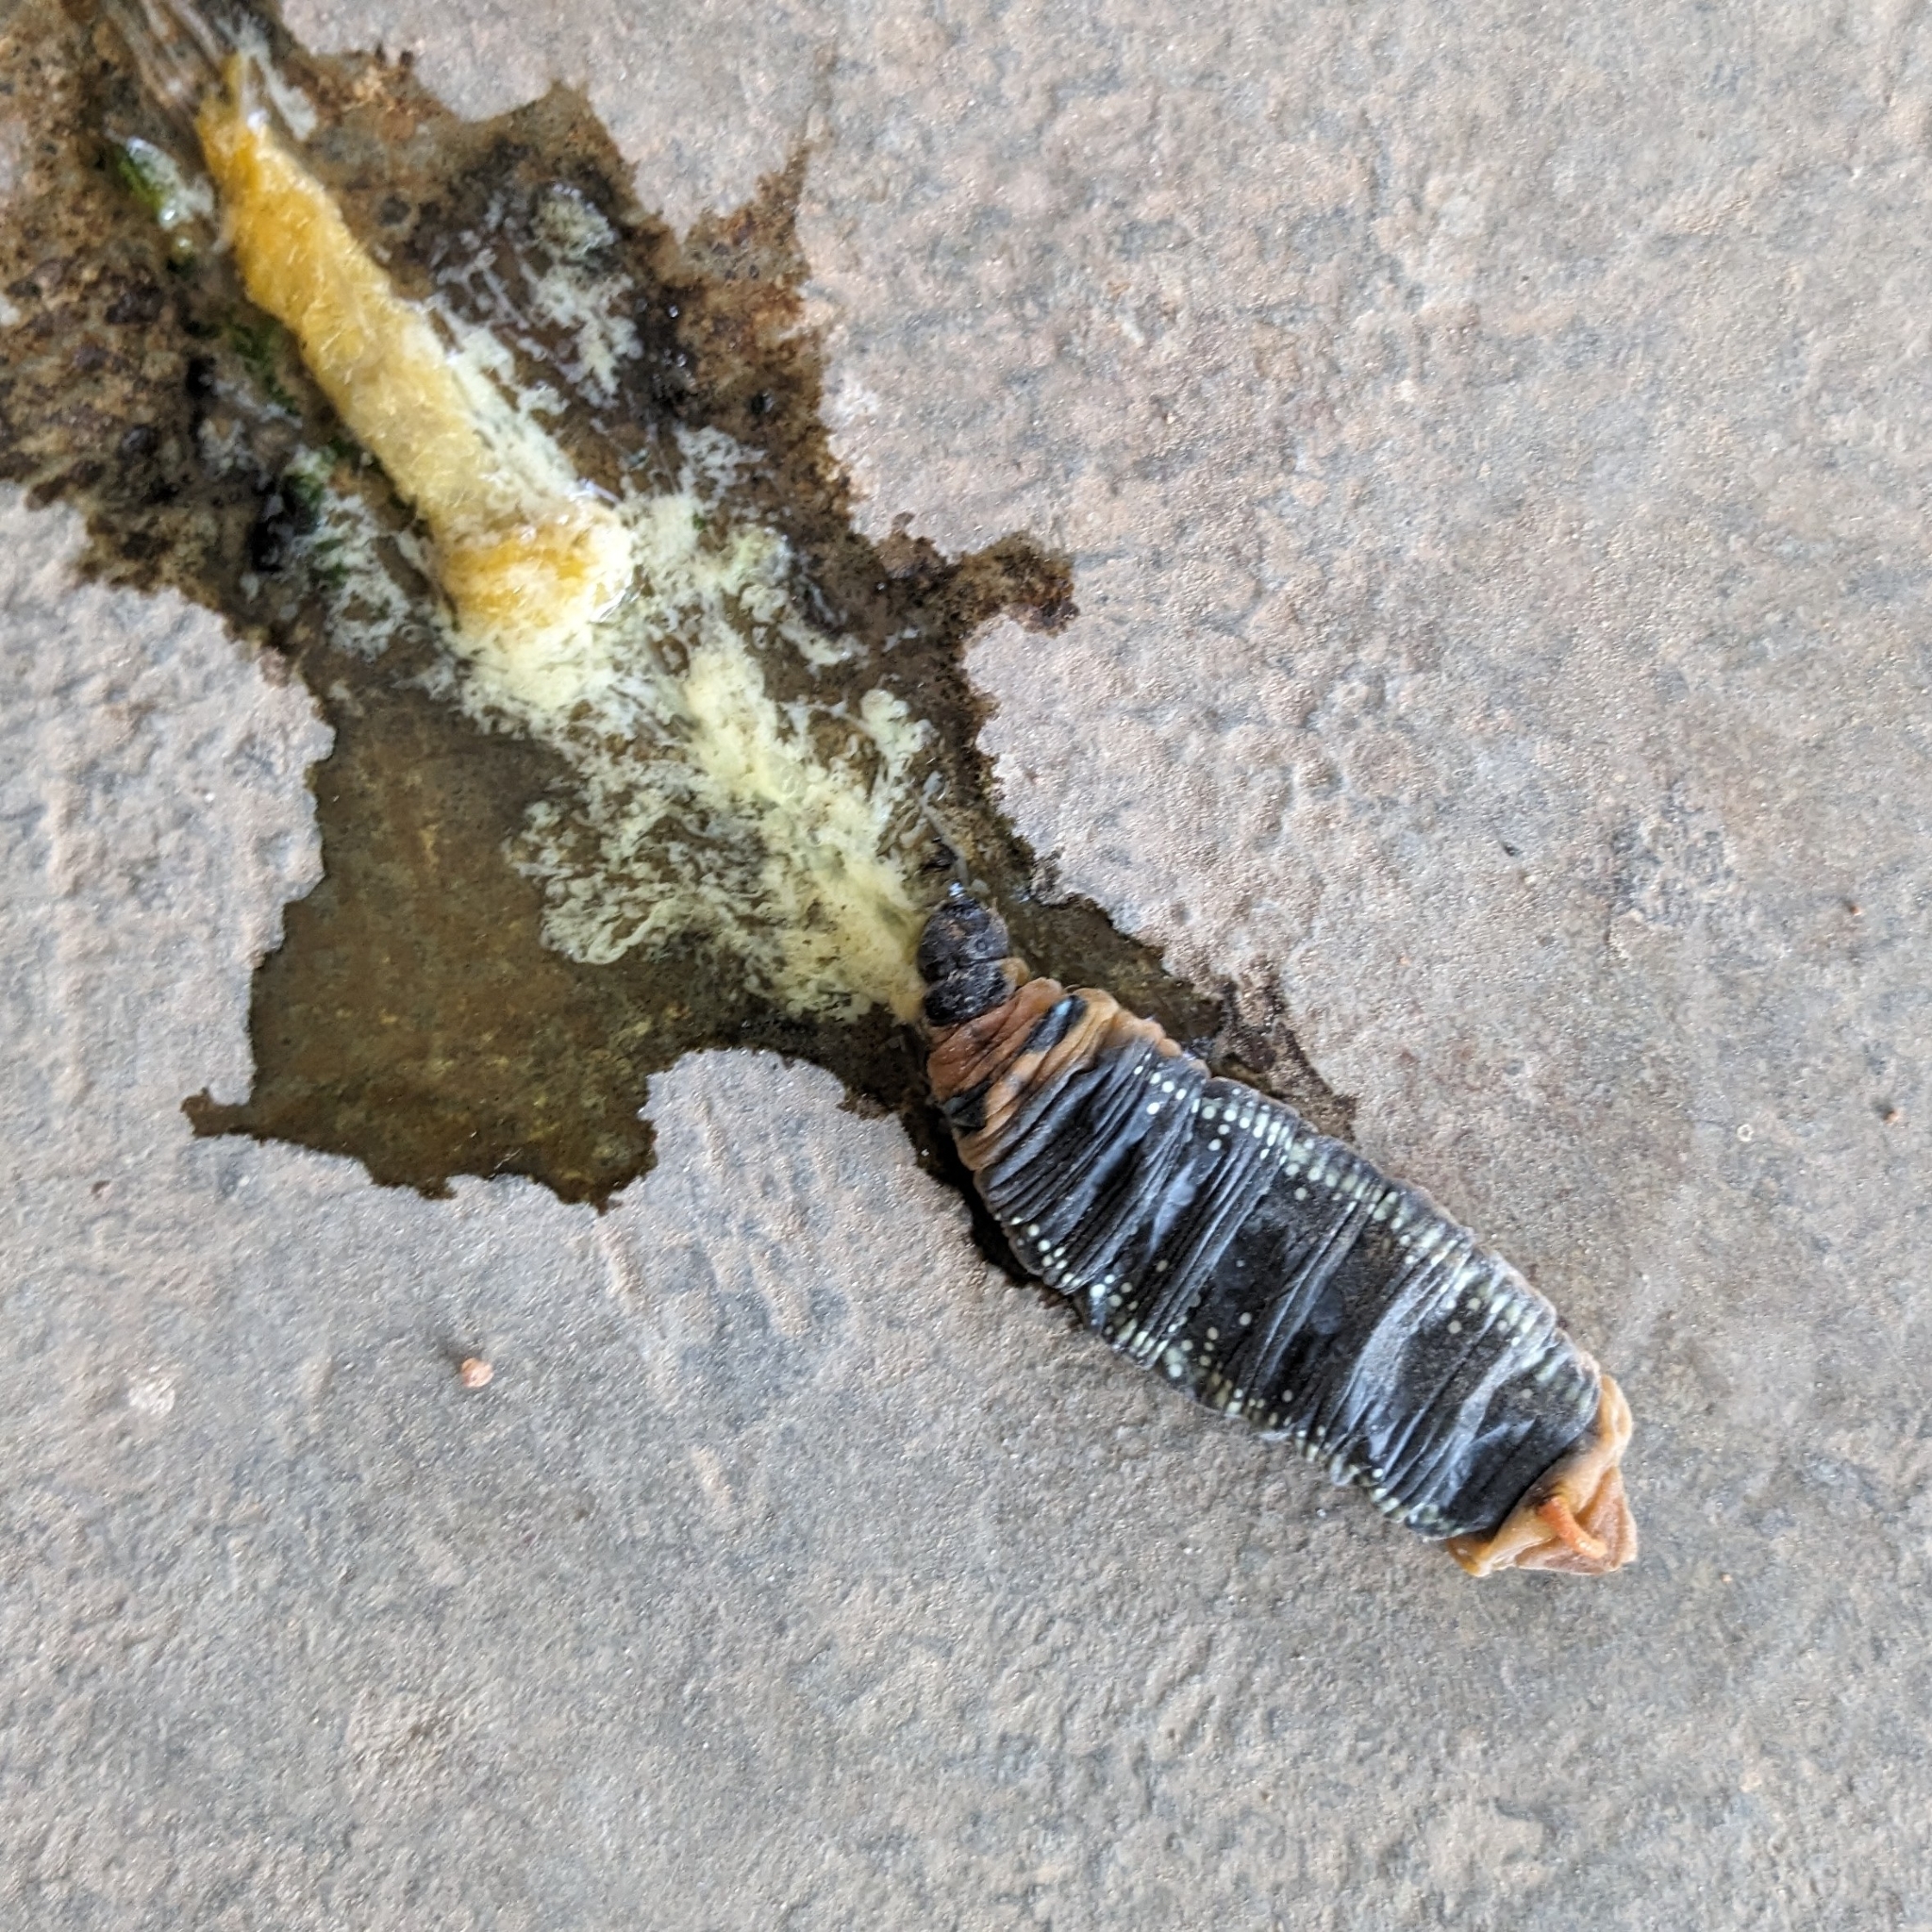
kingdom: Animalia
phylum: Arthropoda
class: Insecta
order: Lepidoptera
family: Sphingidae
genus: Daphnis
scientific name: Daphnis nerii
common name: Oleander hawk-moth
